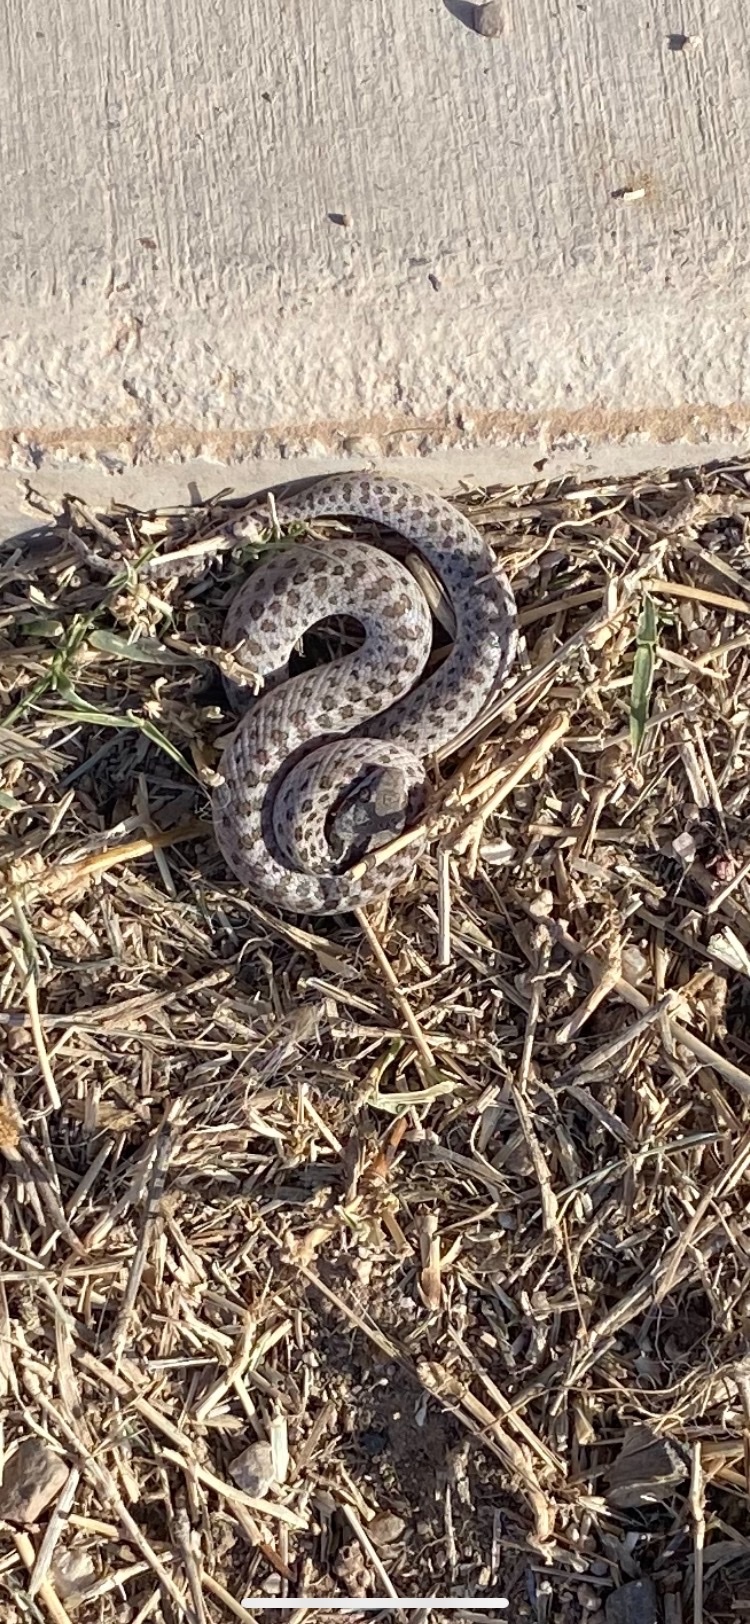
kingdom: Animalia
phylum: Chordata
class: Squamata
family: Colubridae
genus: Hypsiglena
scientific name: Hypsiglena chlorophaea
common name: Desert nightsnake
